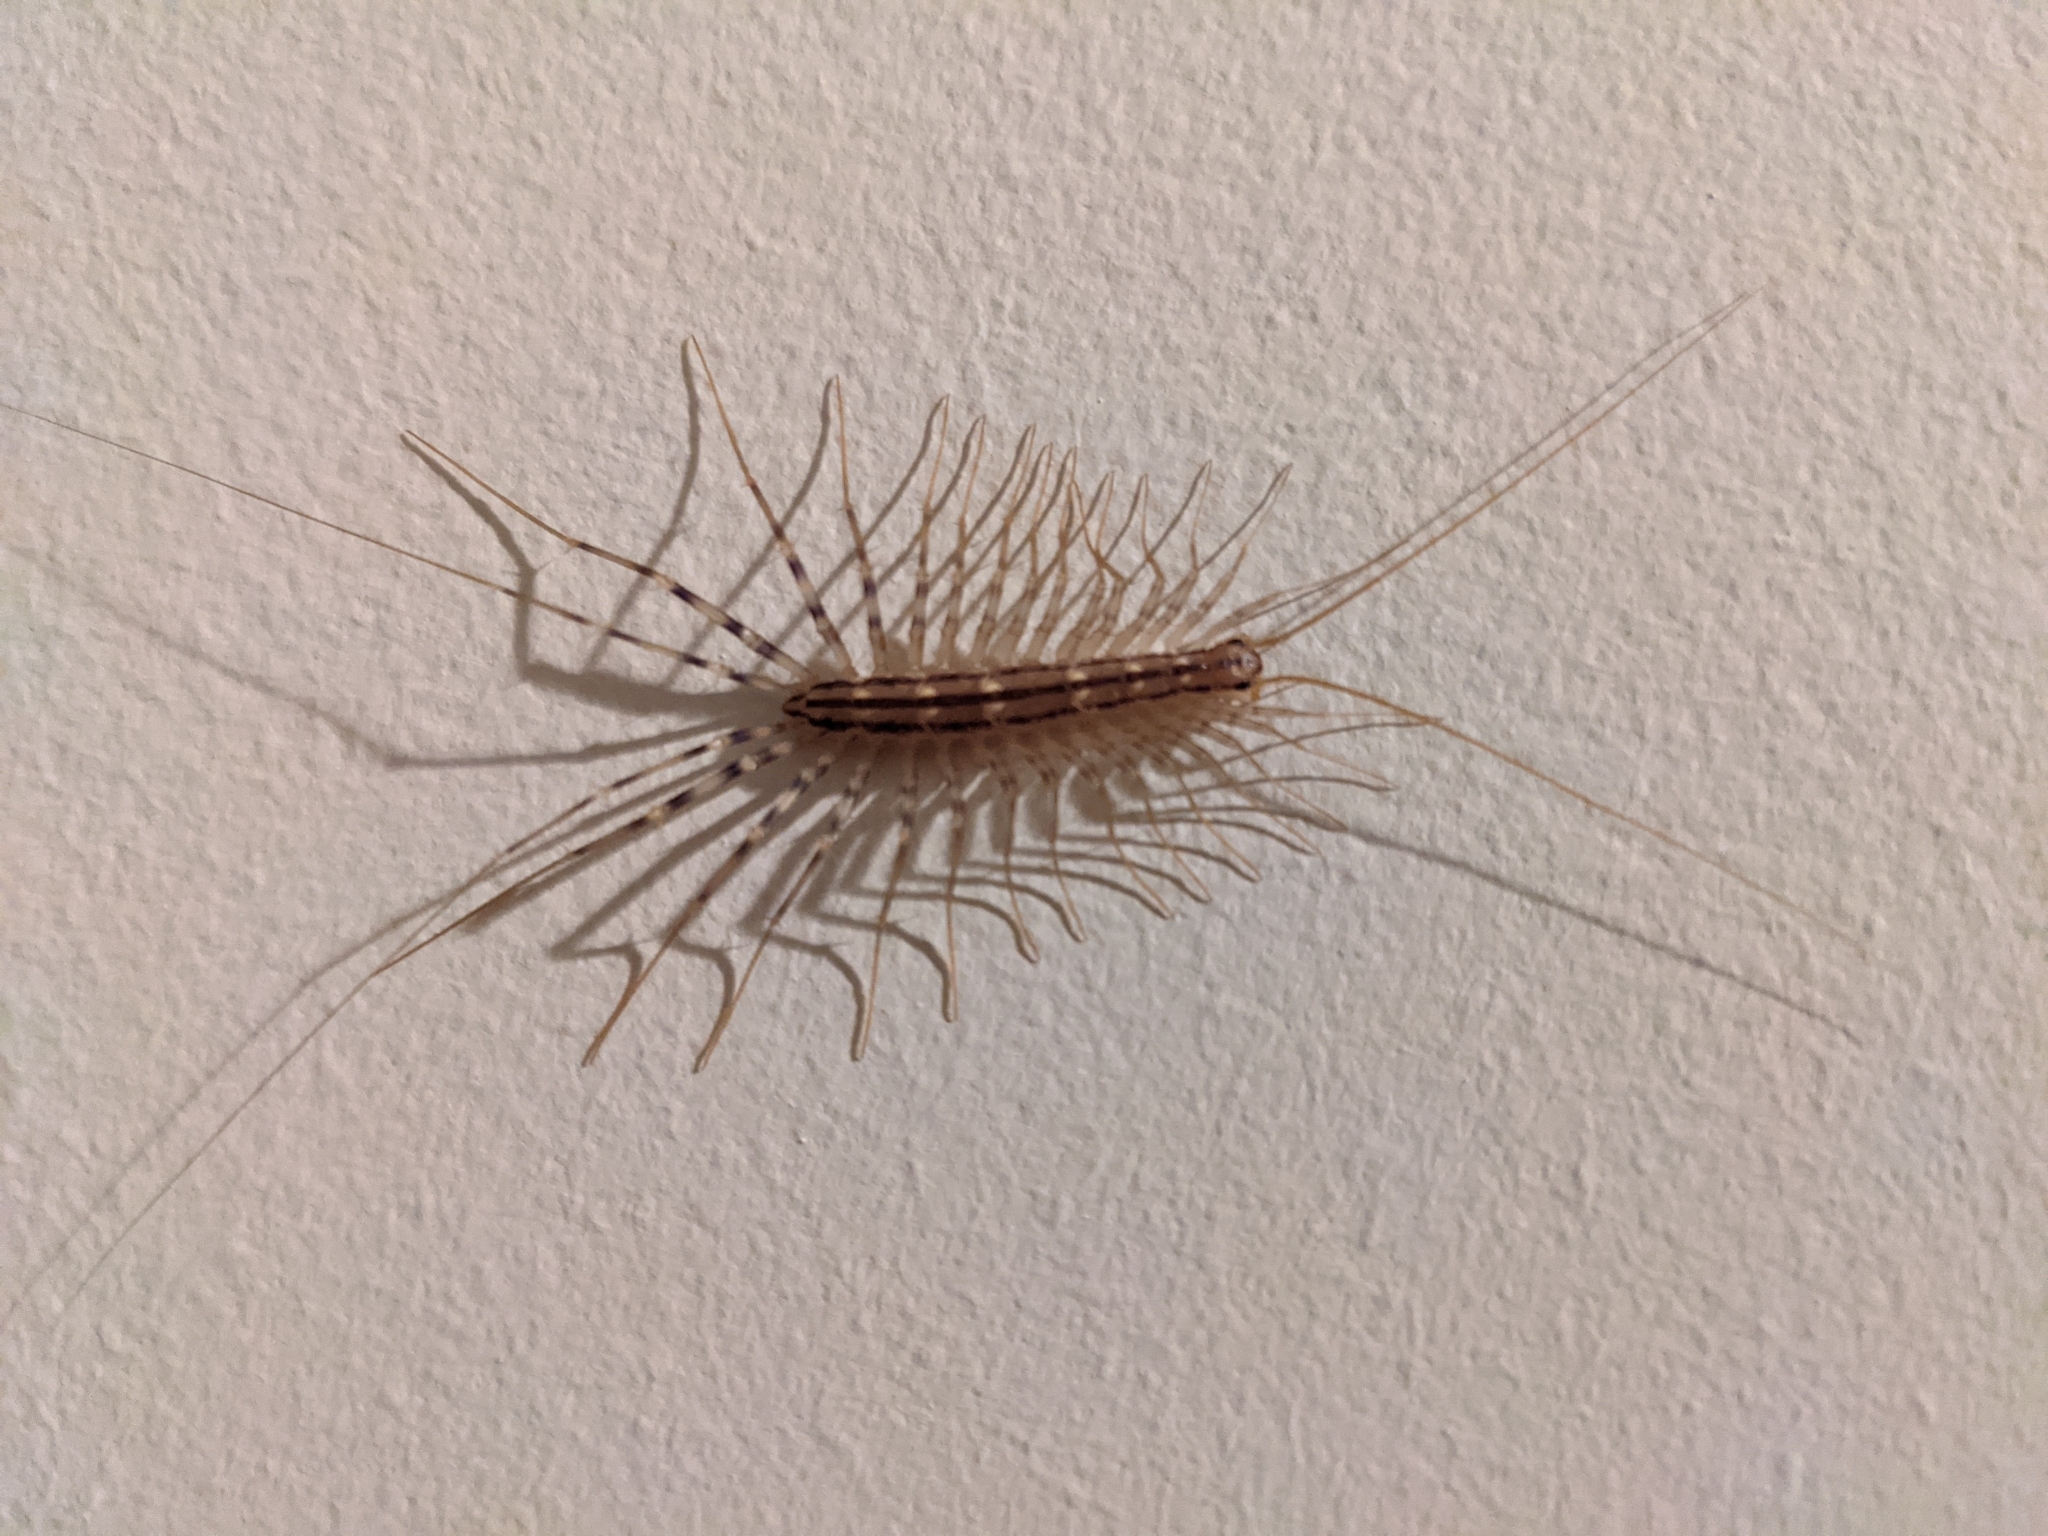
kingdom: Animalia
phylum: Arthropoda
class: Chilopoda
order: Scutigeromorpha
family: Scutigeridae
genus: Scutigera
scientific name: Scutigera coleoptrata
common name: House centipede
